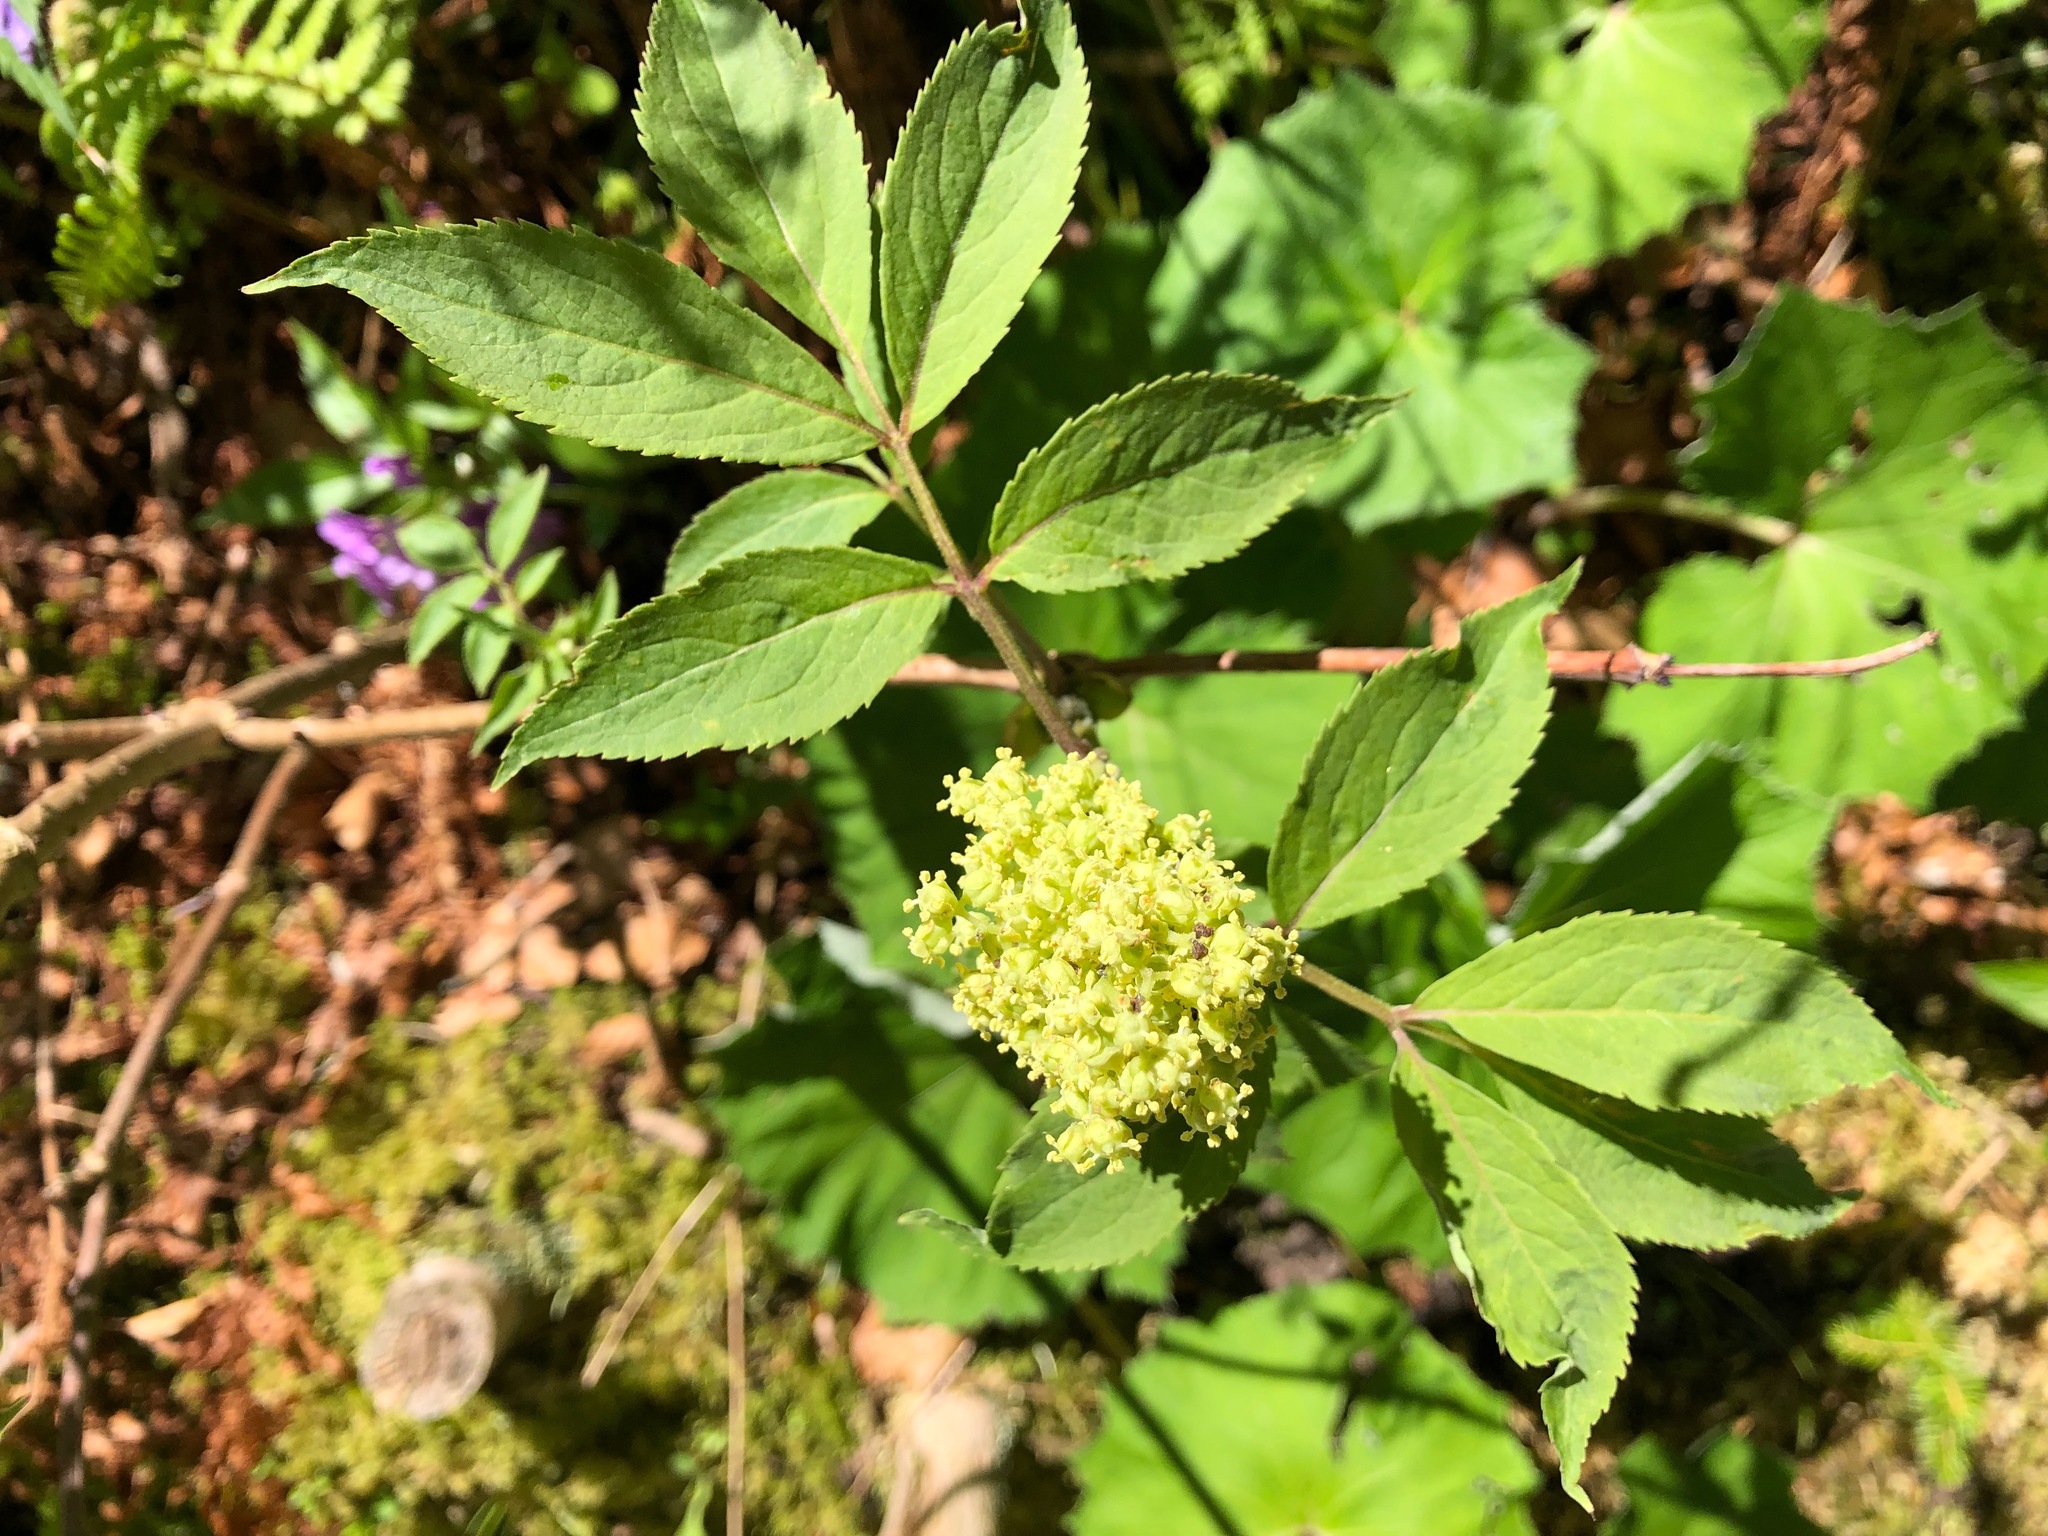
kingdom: Plantae
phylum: Tracheophyta
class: Magnoliopsida
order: Dipsacales
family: Viburnaceae
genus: Sambucus
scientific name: Sambucus racemosa
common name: Red-berried elder
